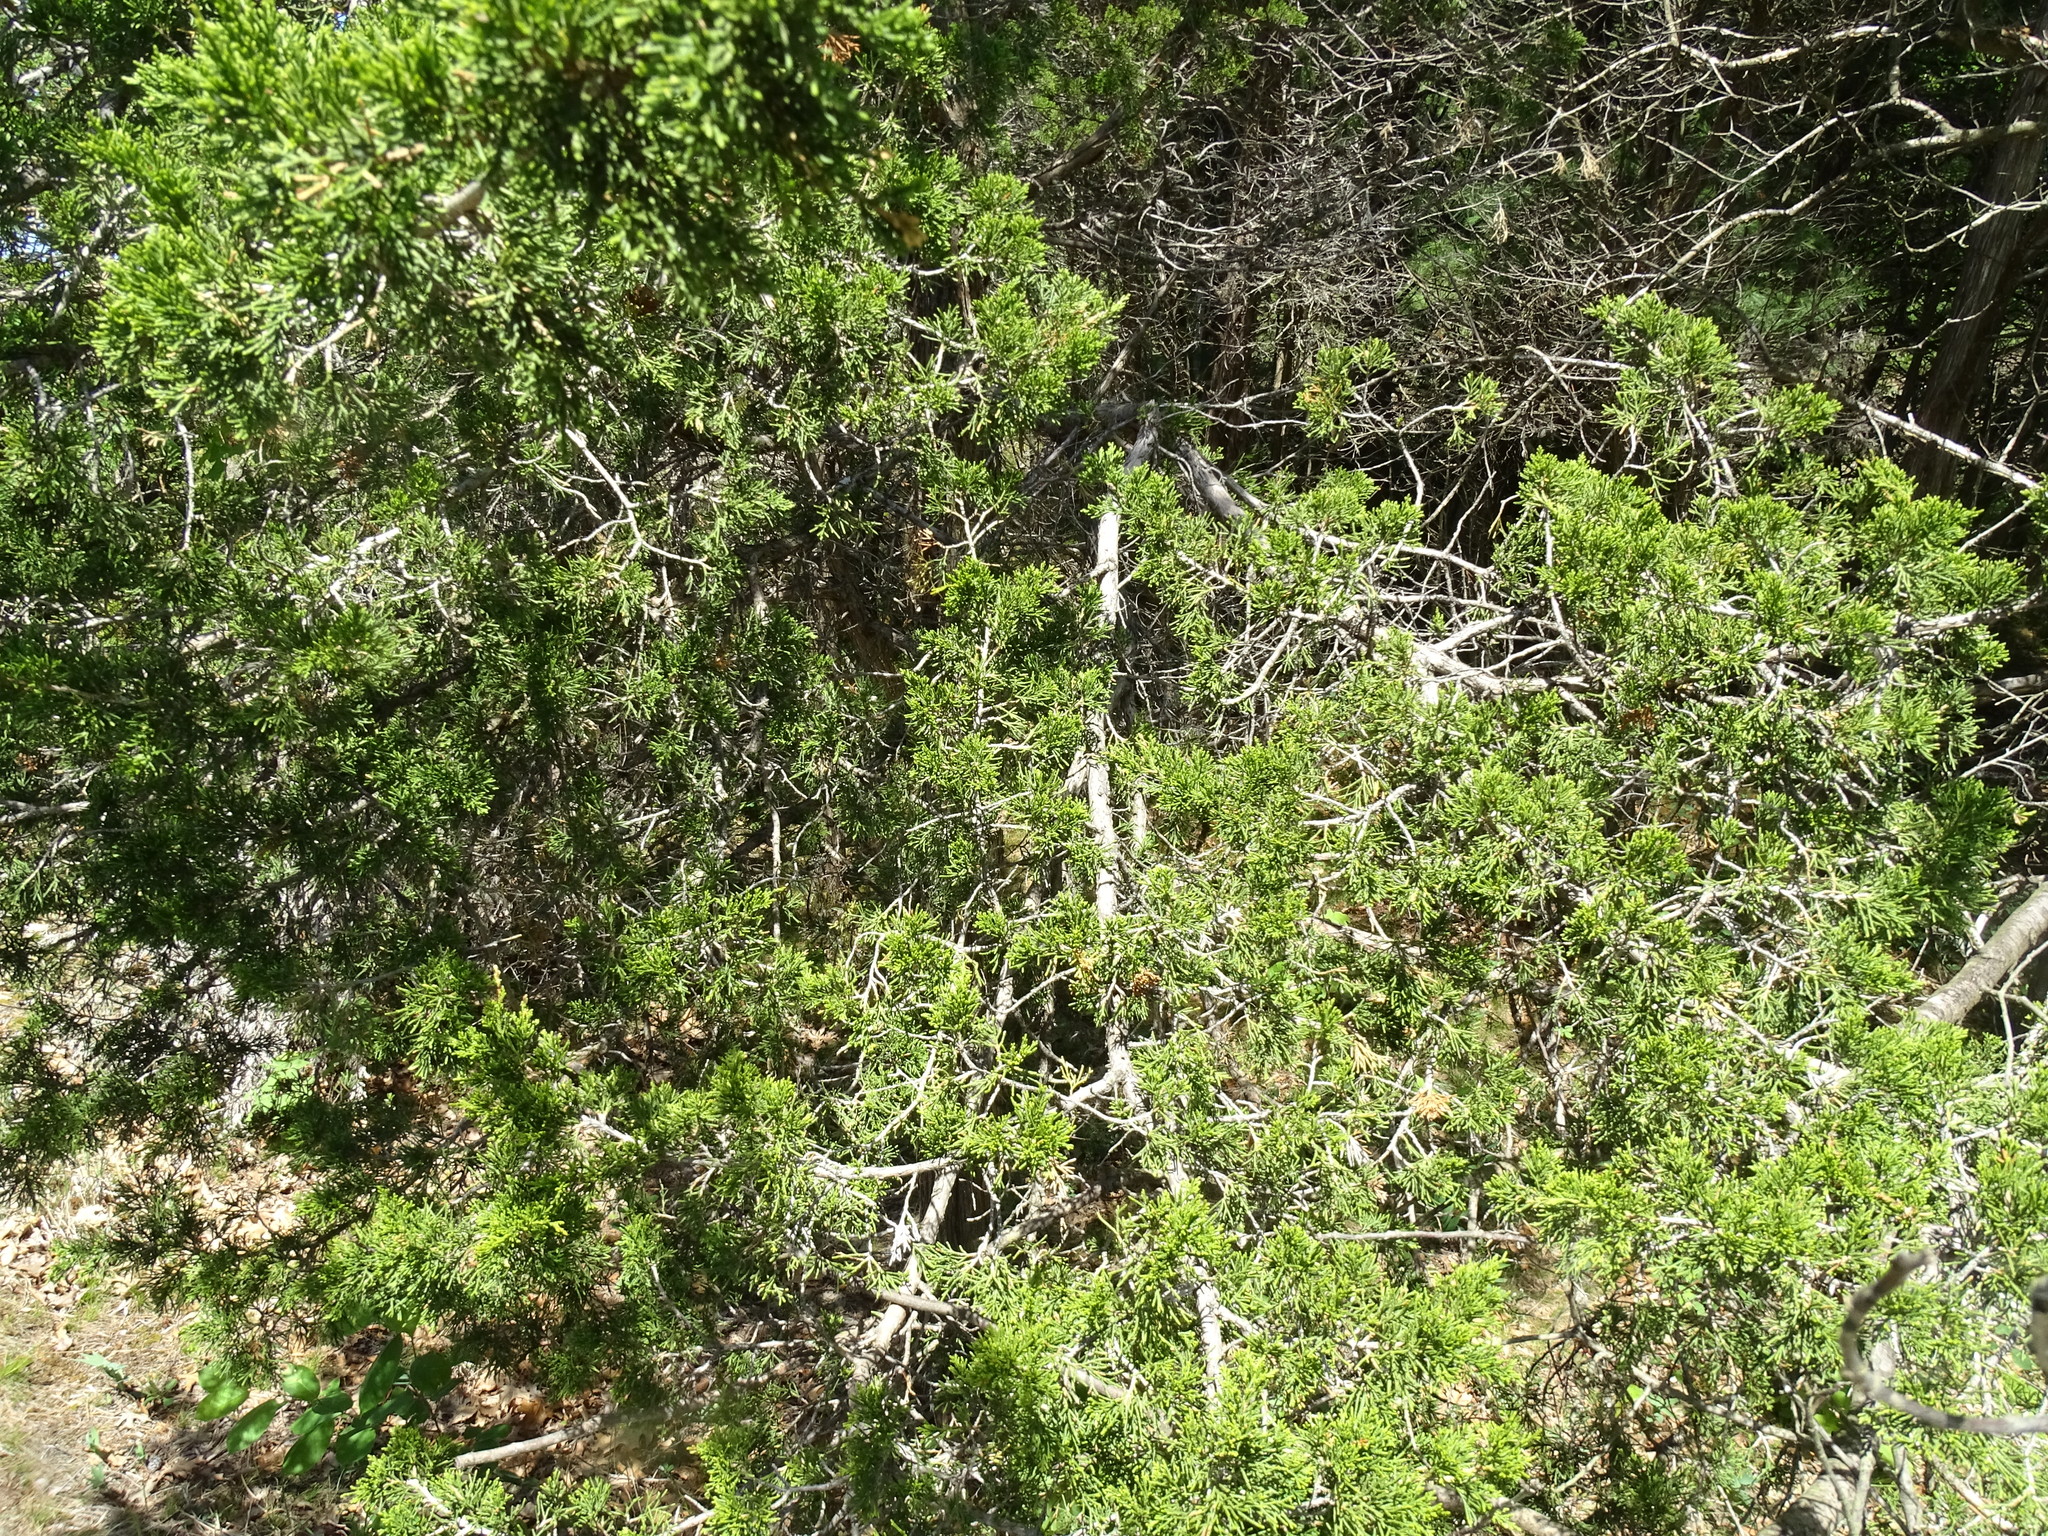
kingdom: Plantae
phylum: Tracheophyta
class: Pinopsida
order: Pinales
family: Cupressaceae
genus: Juniperus
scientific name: Juniperus virginiana
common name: Red juniper
